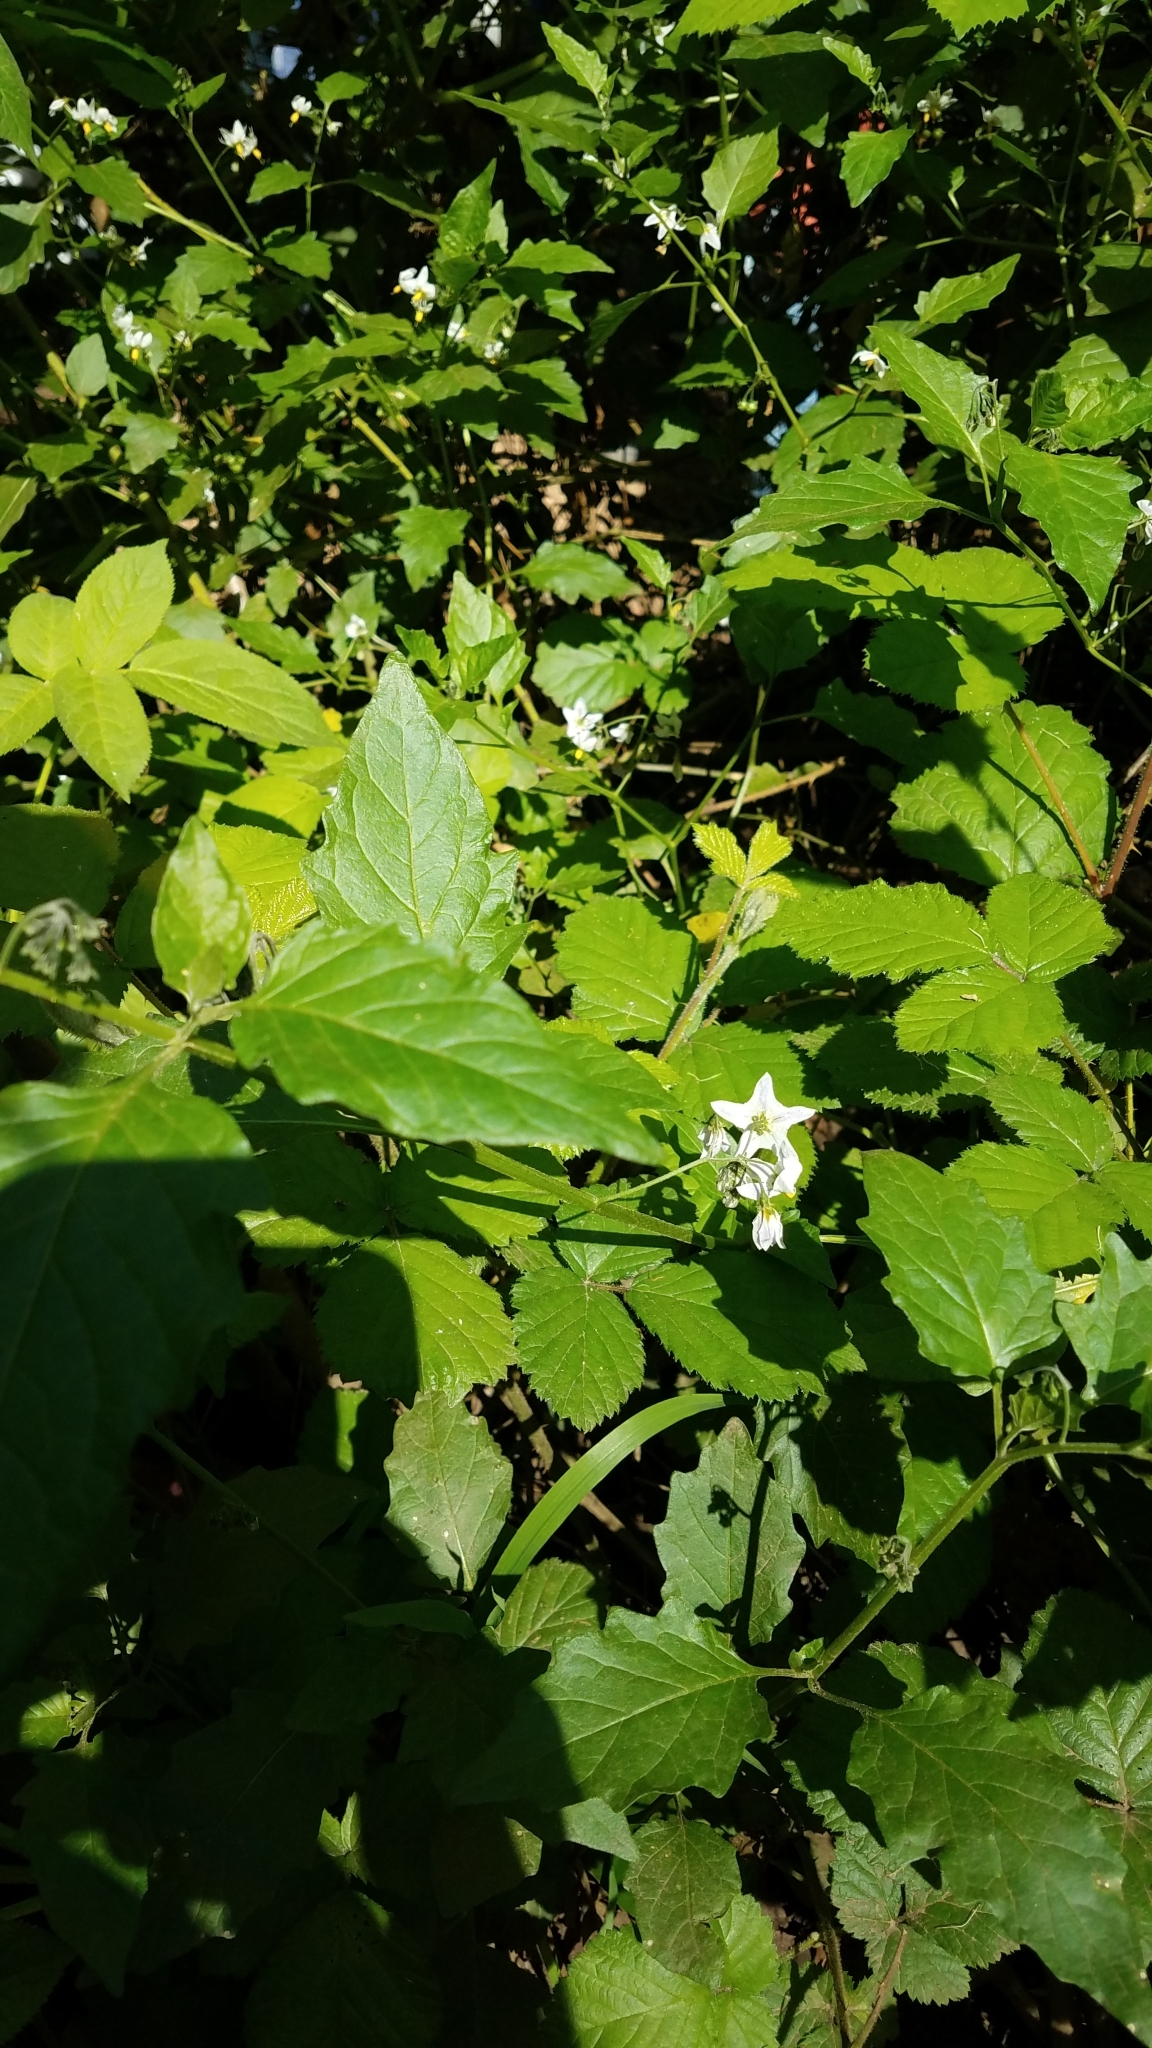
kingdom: Plantae
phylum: Tracheophyta
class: Magnoliopsida
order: Solanales
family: Solanaceae
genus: Solanum
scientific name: Solanum furcatum
